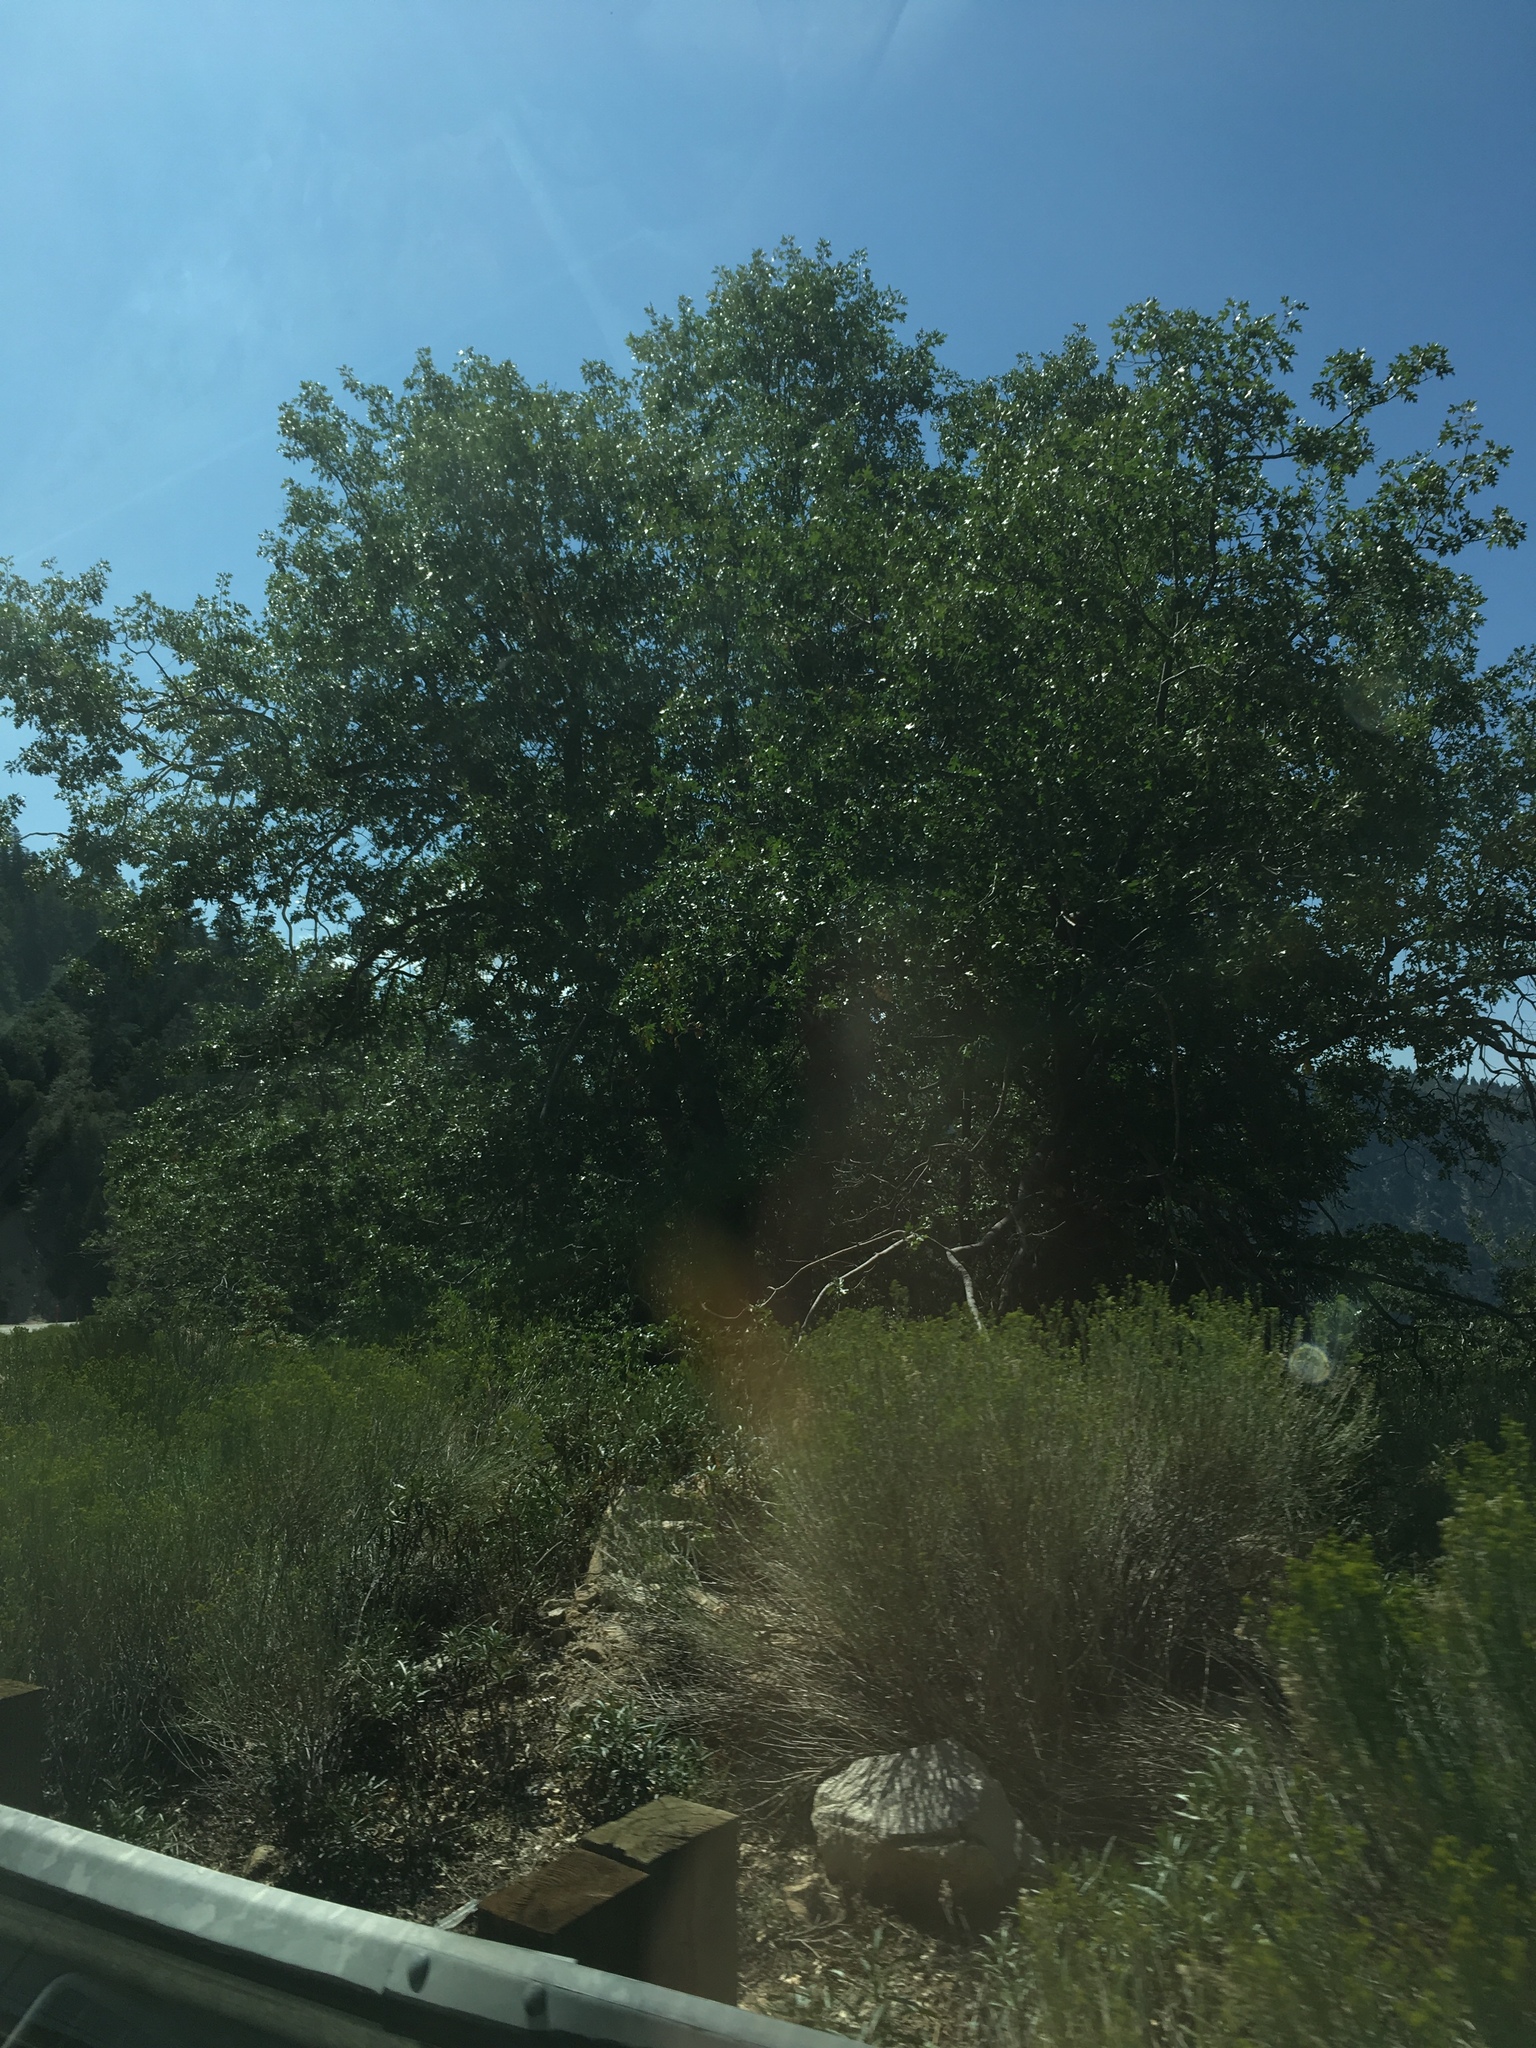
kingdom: Plantae
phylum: Tracheophyta
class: Magnoliopsida
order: Fagales
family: Fagaceae
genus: Quercus
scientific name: Quercus kelloggii
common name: California black oak
